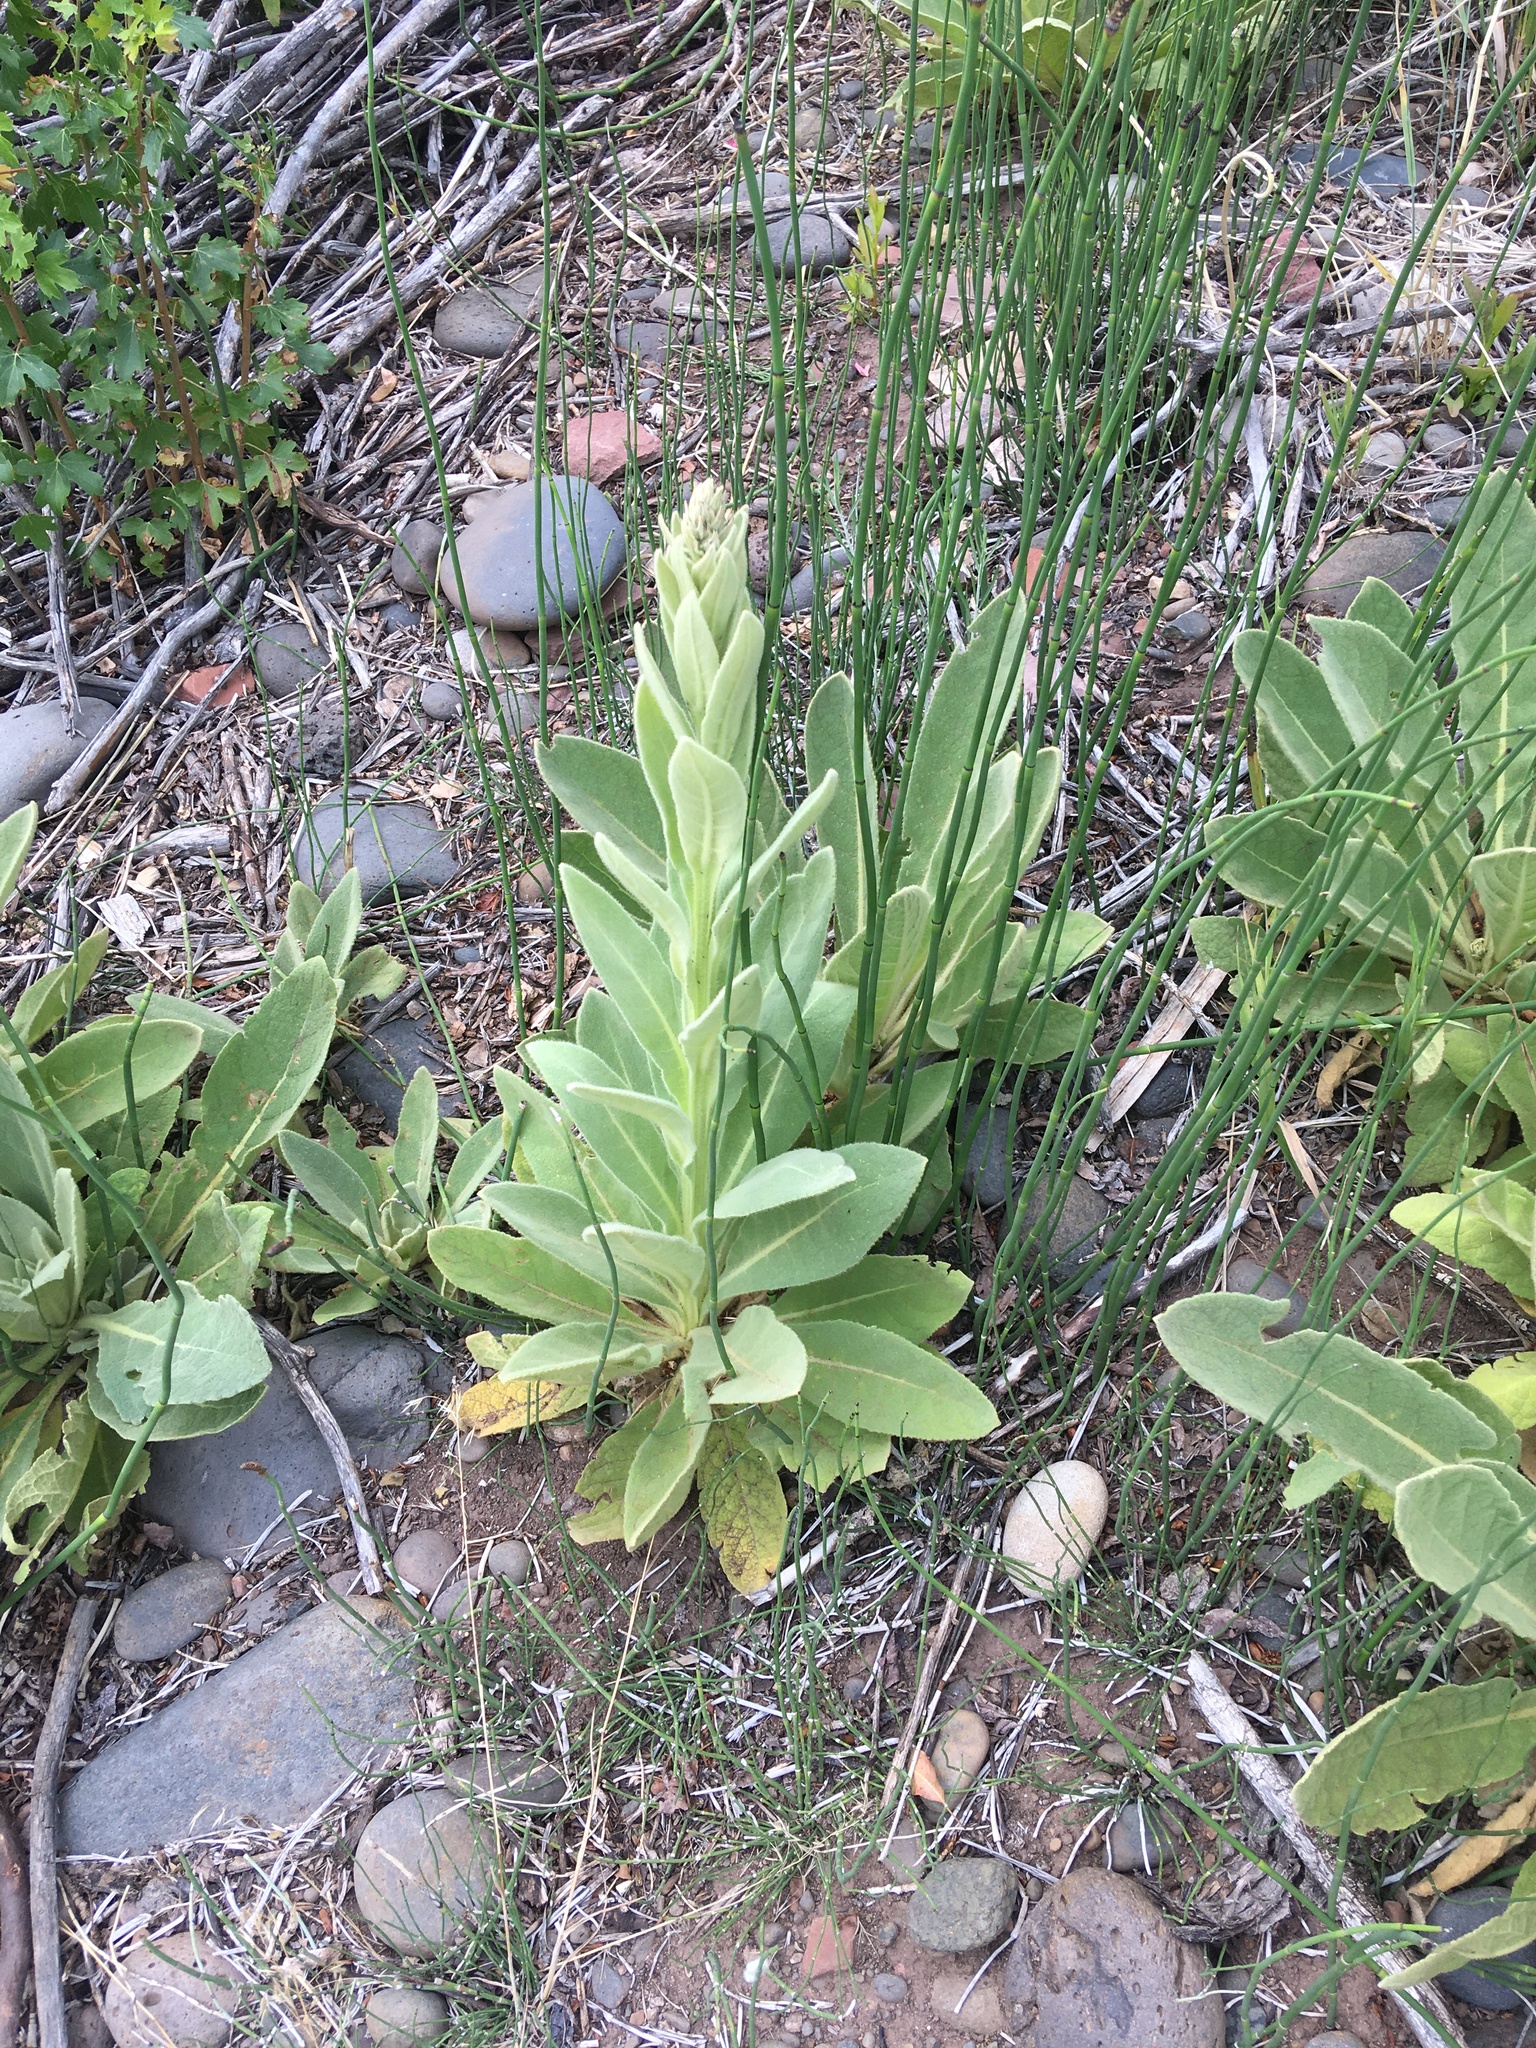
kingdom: Plantae
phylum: Tracheophyta
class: Magnoliopsida
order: Lamiales
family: Scrophulariaceae
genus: Verbascum
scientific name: Verbascum thapsus
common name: Common mullein
